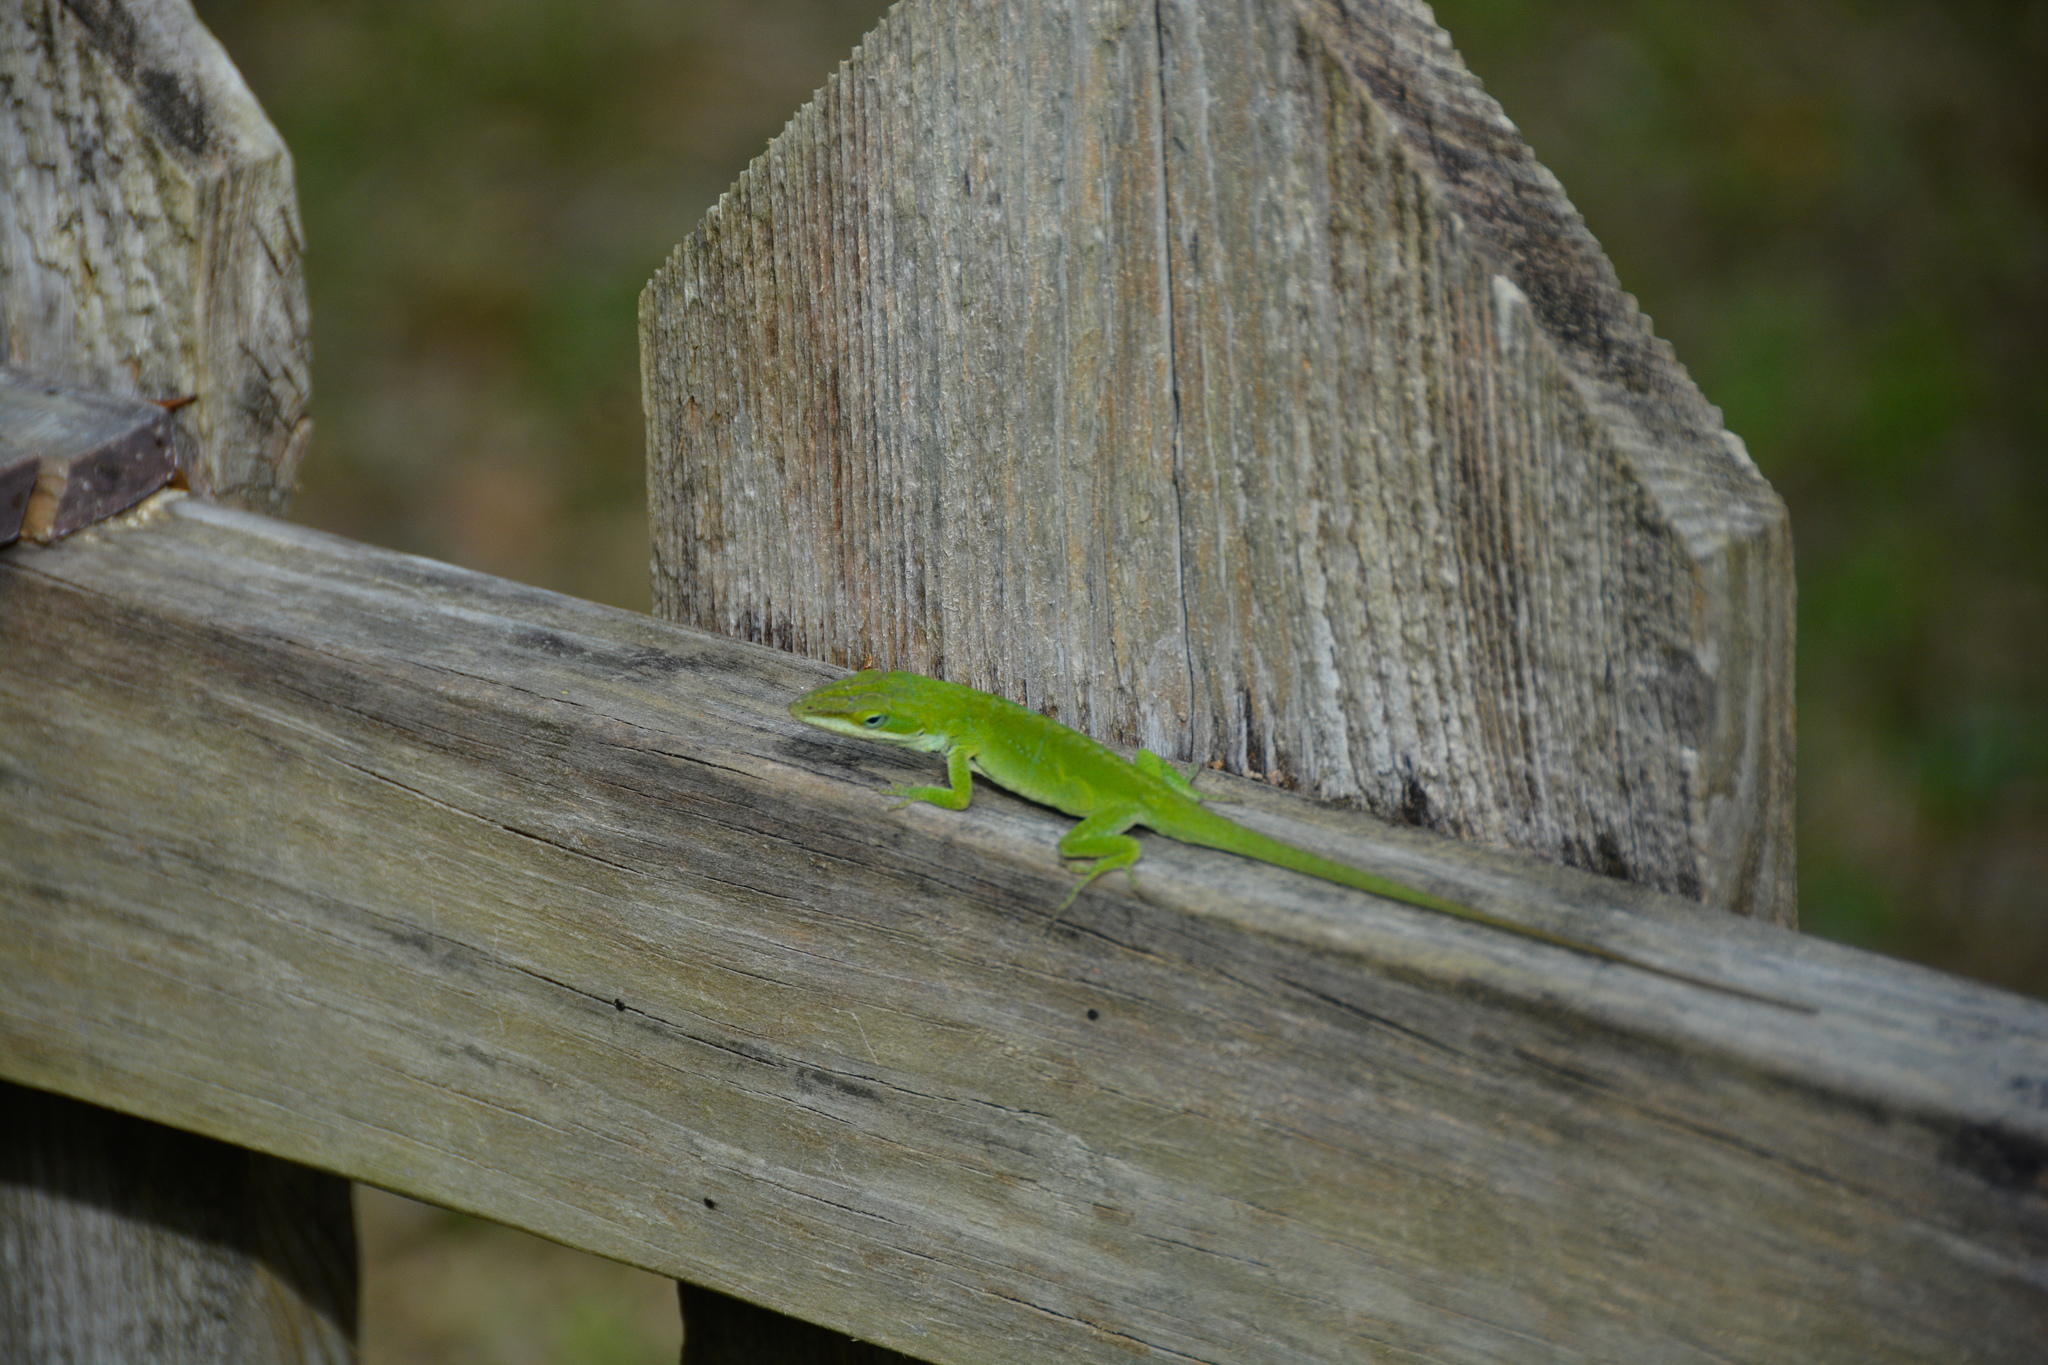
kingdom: Animalia
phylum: Chordata
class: Squamata
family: Dactyloidae
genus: Anolis
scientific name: Anolis carolinensis
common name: Green anole
